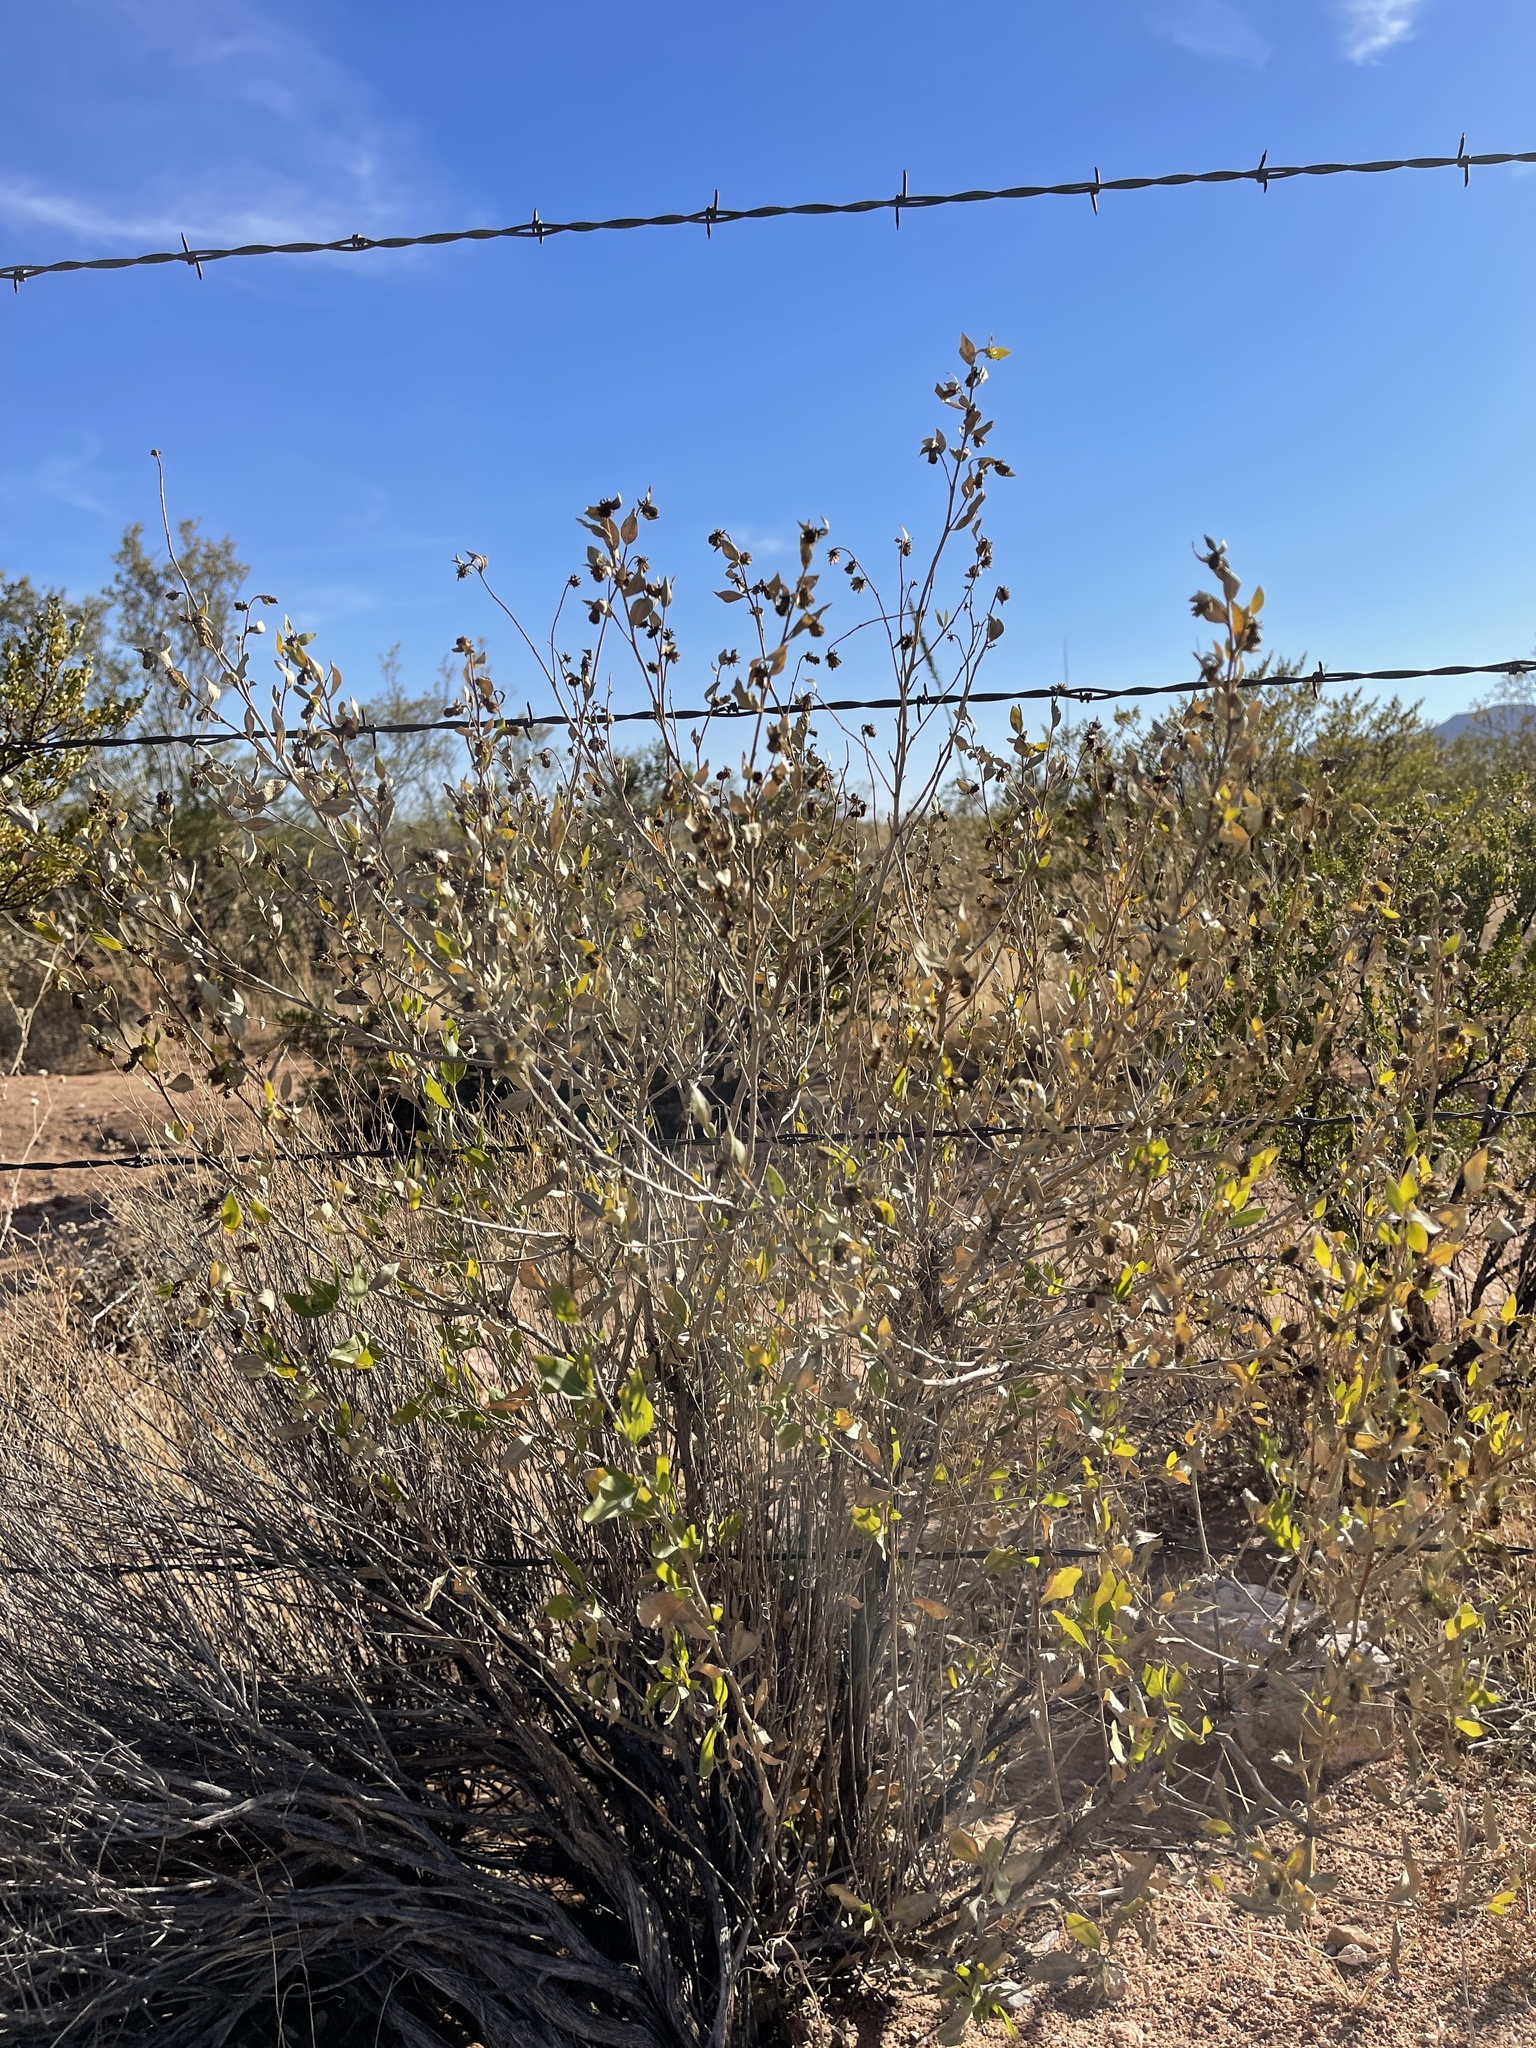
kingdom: Plantae
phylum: Tracheophyta
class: Magnoliopsida
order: Asterales
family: Asteraceae
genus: Flourensia
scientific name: Flourensia cernua
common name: Varnishbush
